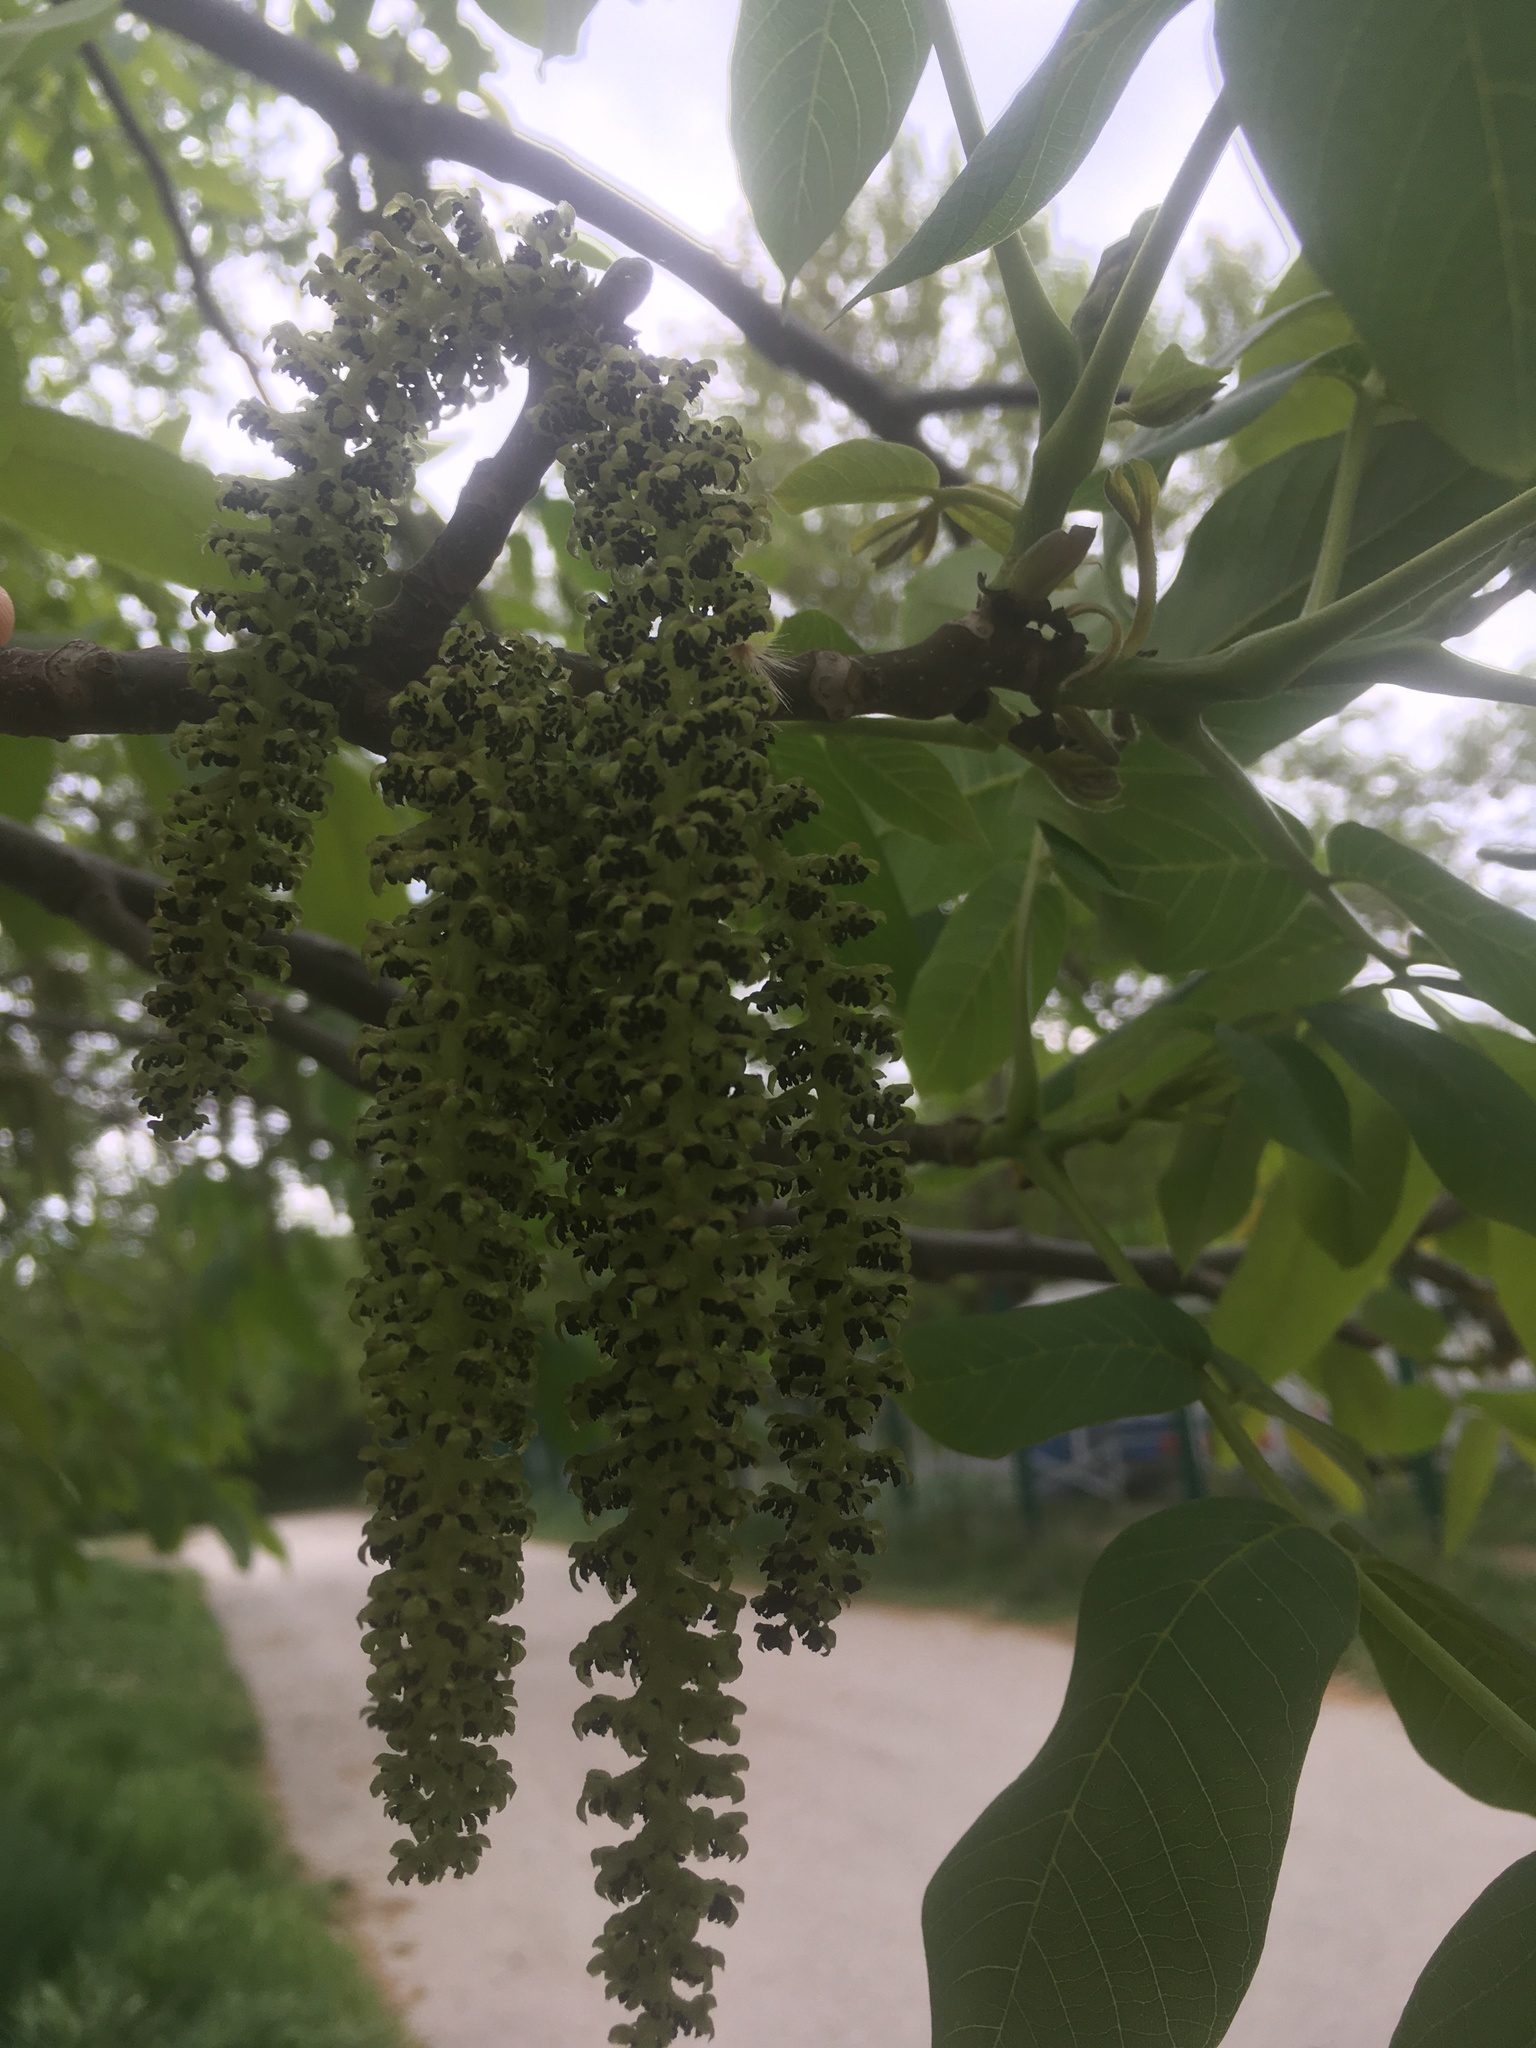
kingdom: Plantae
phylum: Tracheophyta
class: Magnoliopsida
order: Fagales
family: Juglandaceae
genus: Juglans
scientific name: Juglans regia
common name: Walnut
